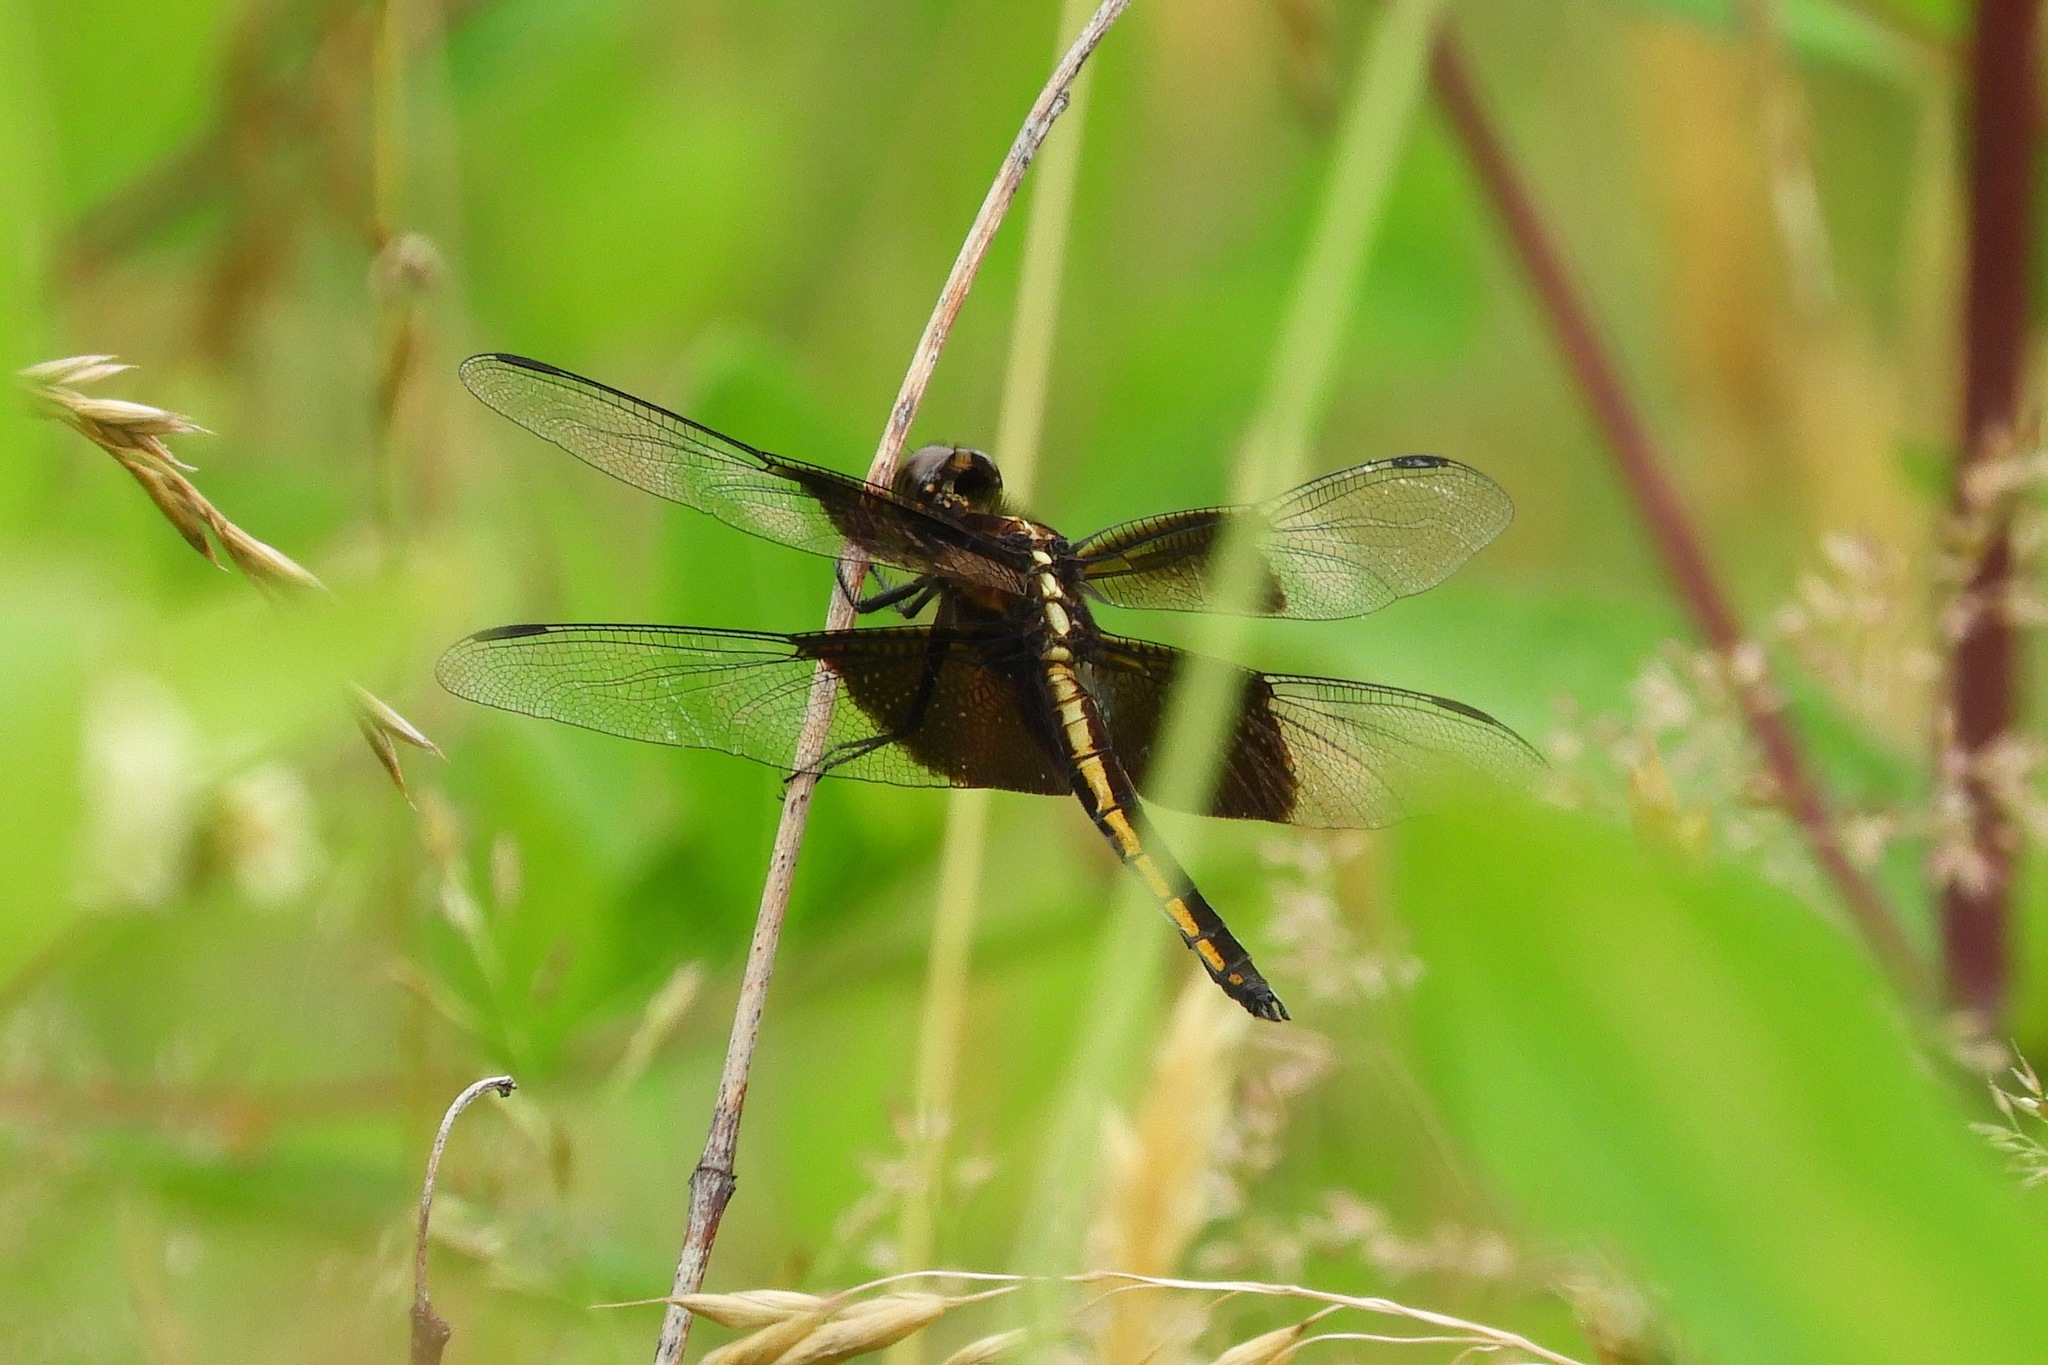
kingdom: Animalia
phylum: Arthropoda
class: Insecta
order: Odonata
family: Libellulidae
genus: Libellula
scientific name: Libellula luctuosa
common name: Widow skimmer
